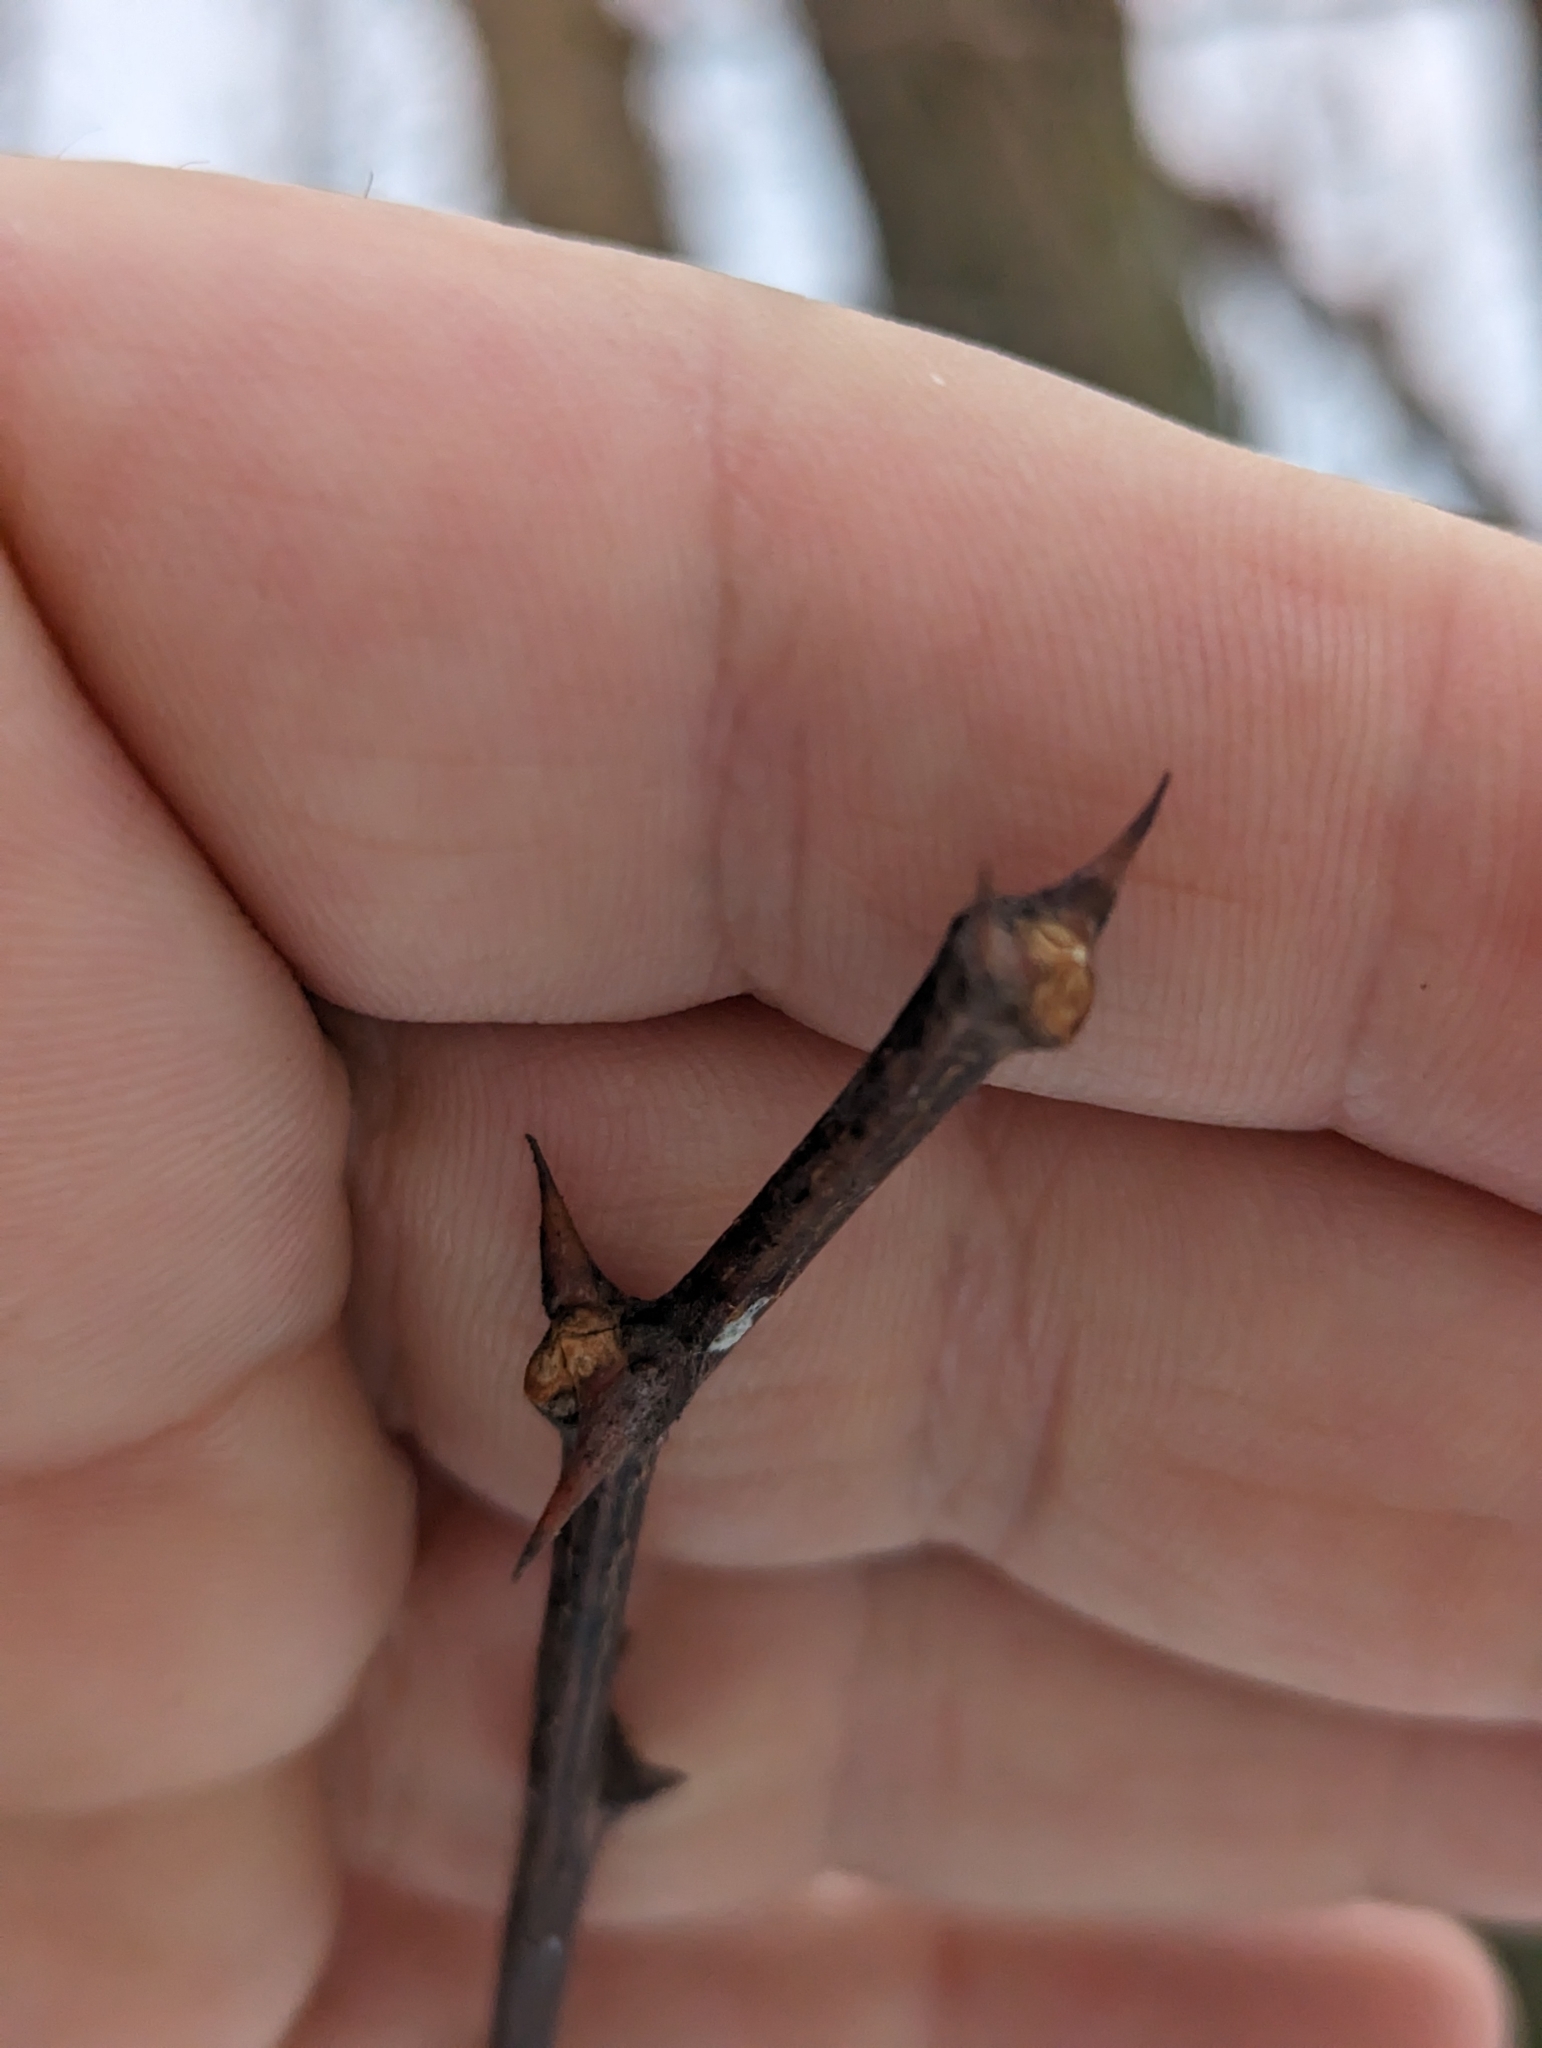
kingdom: Plantae
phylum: Tracheophyta
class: Magnoliopsida
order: Fabales
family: Fabaceae
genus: Robinia
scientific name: Robinia pseudoacacia
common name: Black locust
